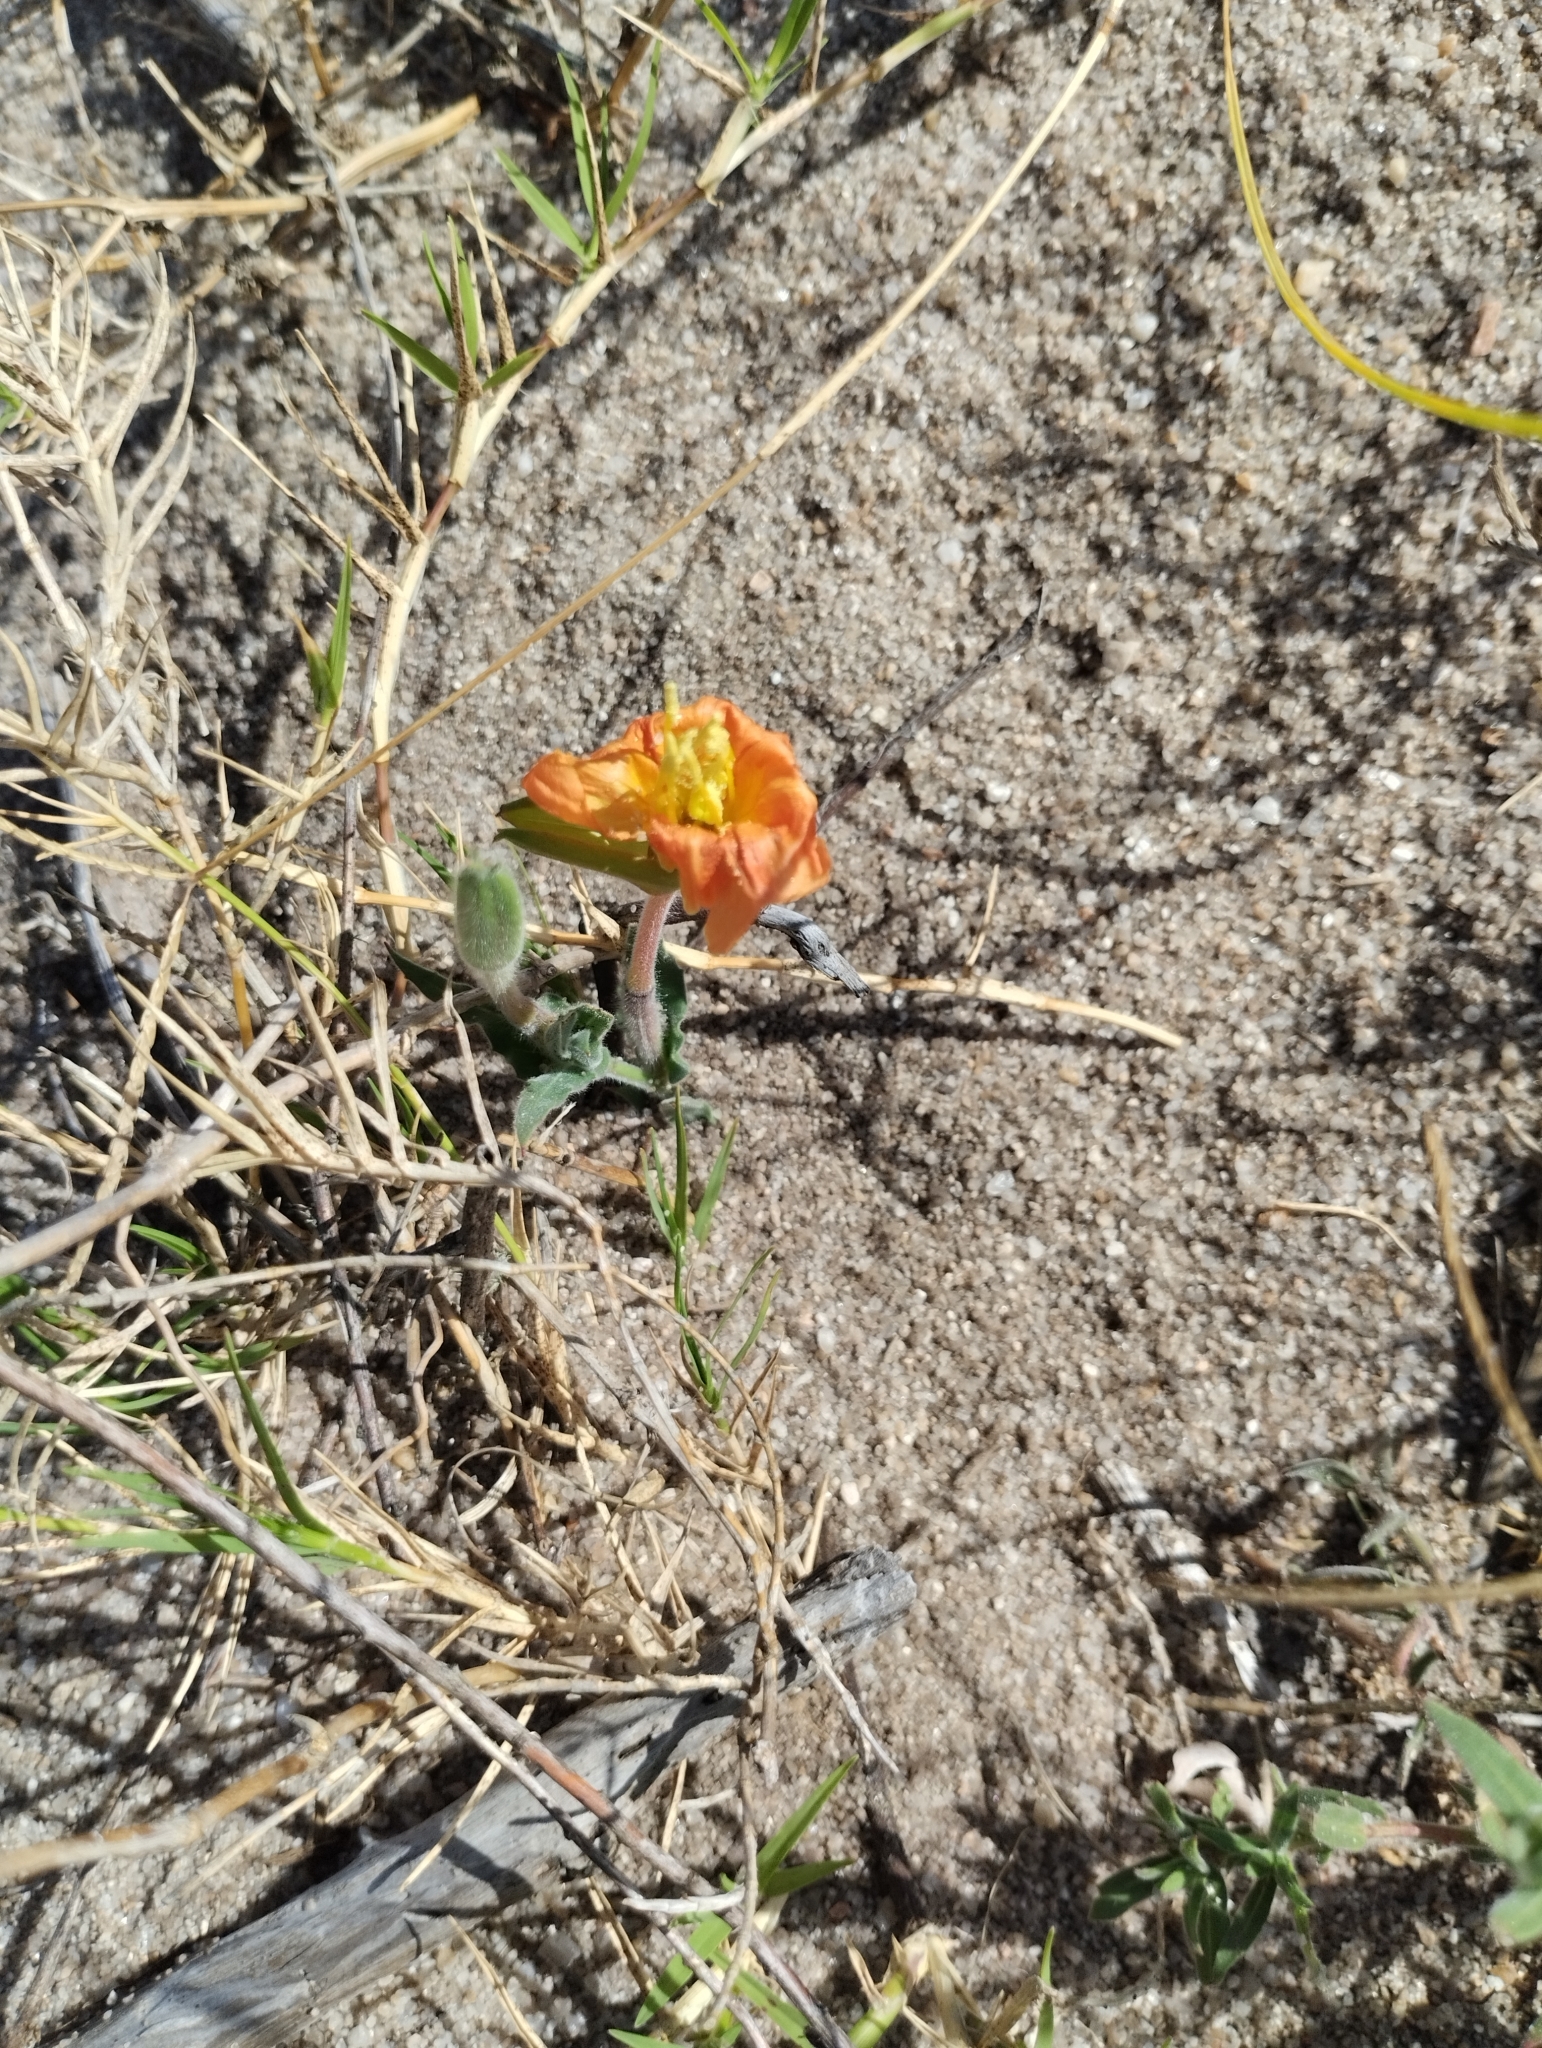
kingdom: Plantae
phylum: Tracheophyta
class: Magnoliopsida
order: Myrtales
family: Onagraceae
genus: Oenothera
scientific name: Oenothera mollissima
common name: Argentine evening primrose
